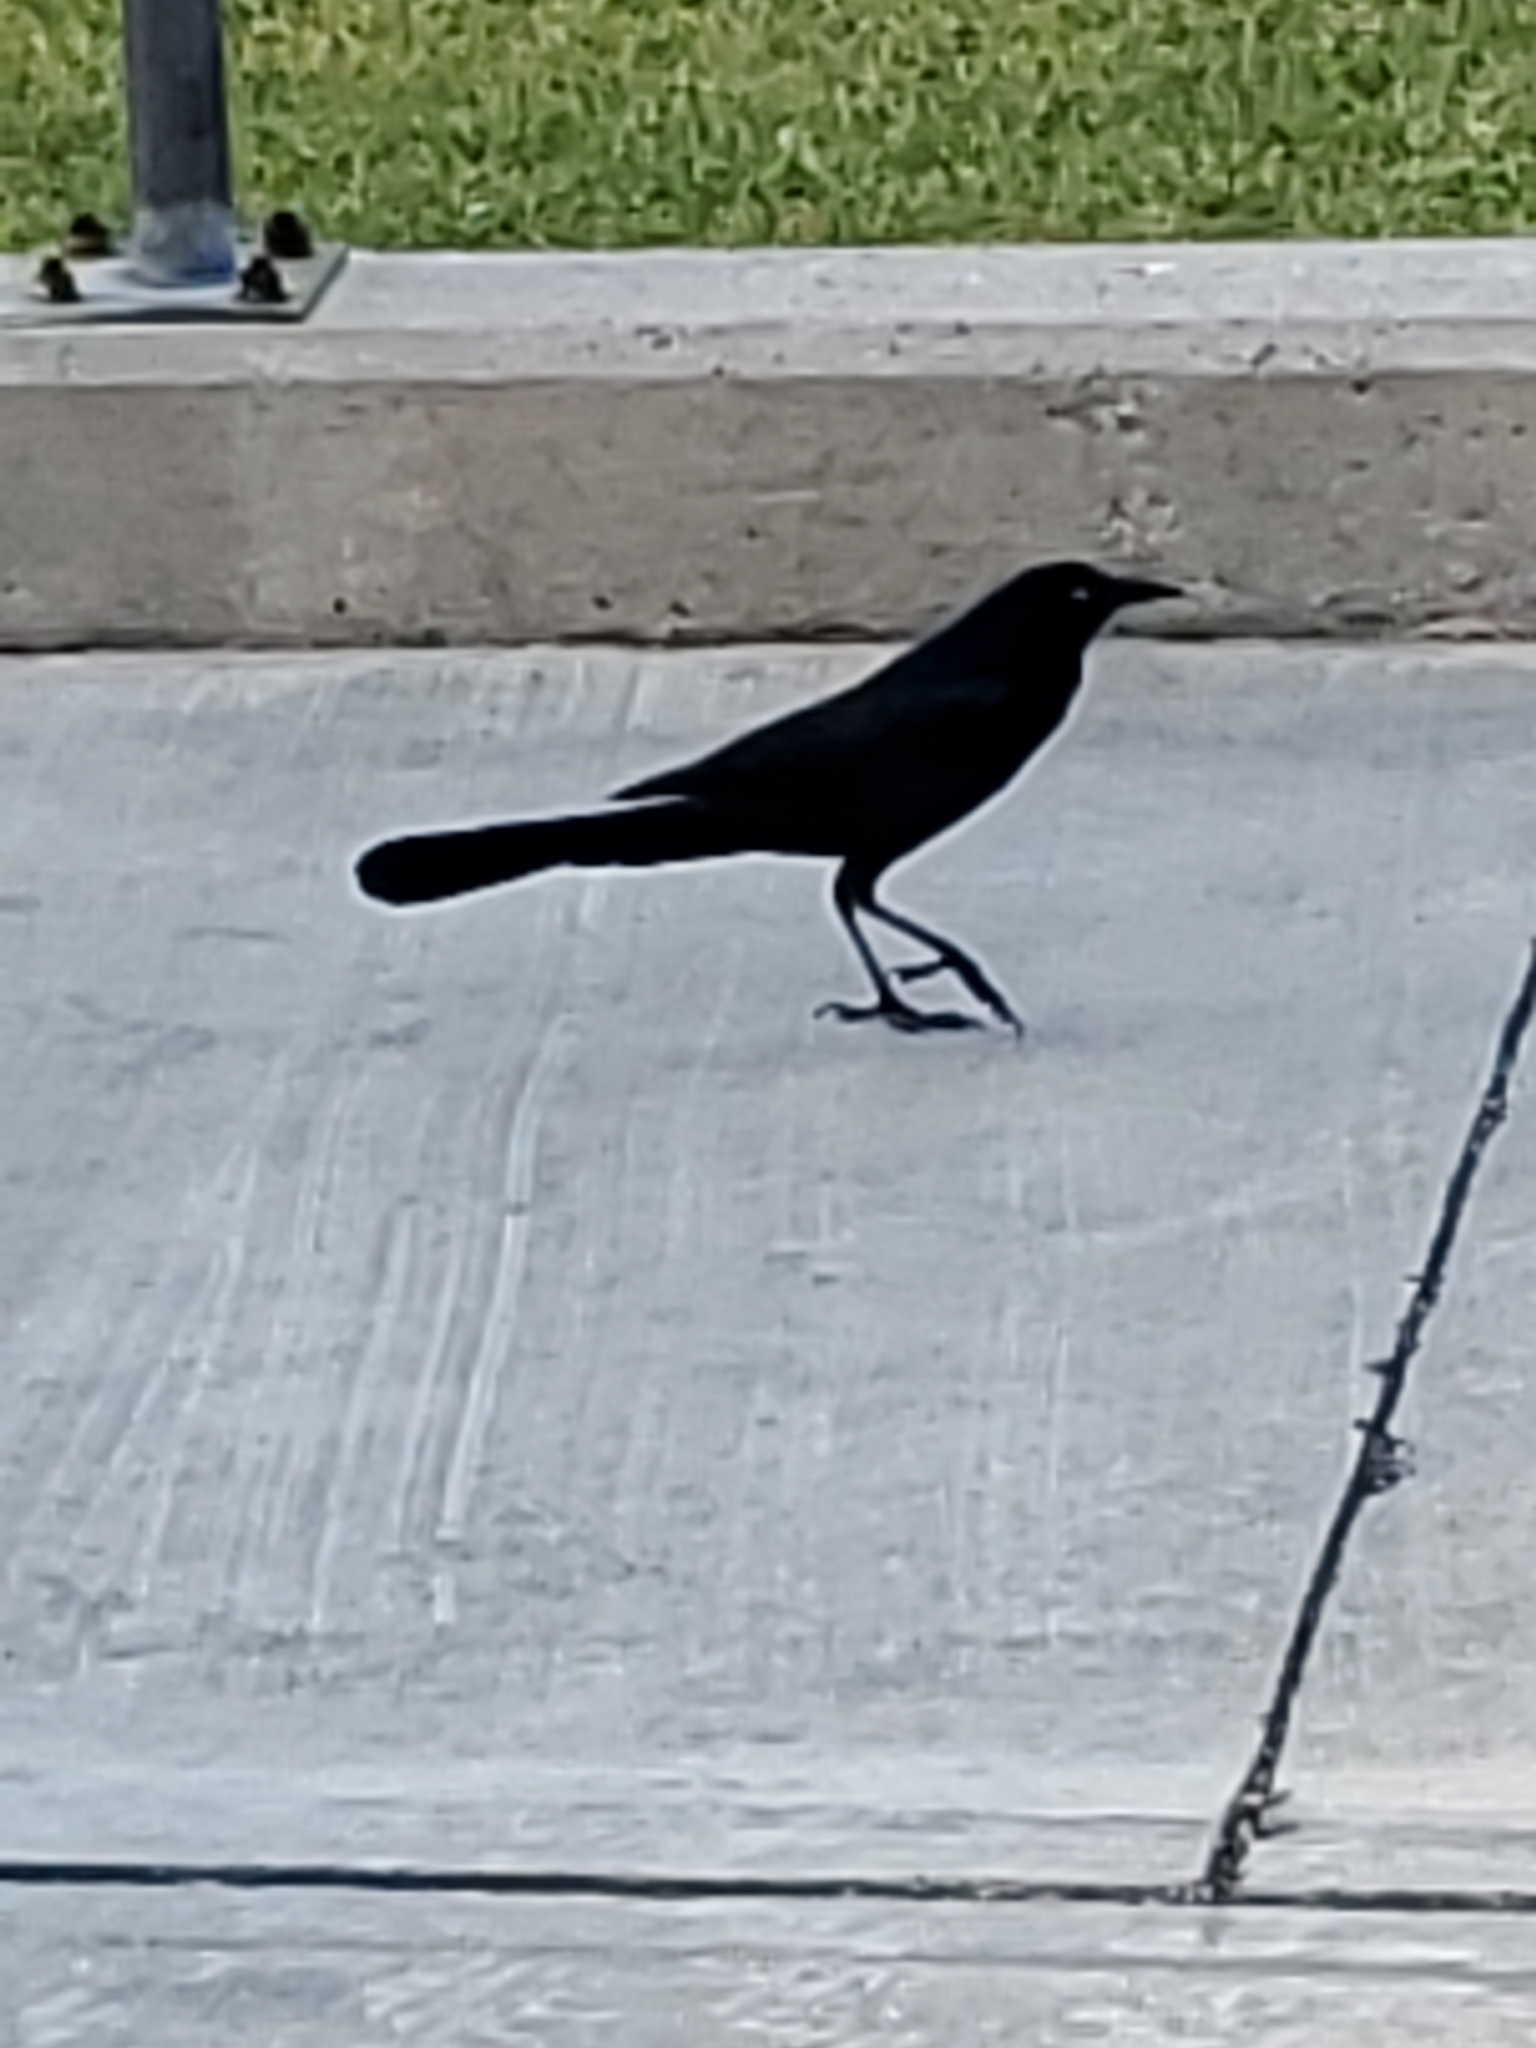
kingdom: Animalia
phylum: Chordata
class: Aves
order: Passeriformes
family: Icteridae
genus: Quiscalus
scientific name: Quiscalus major
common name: Boat-tailed grackle
